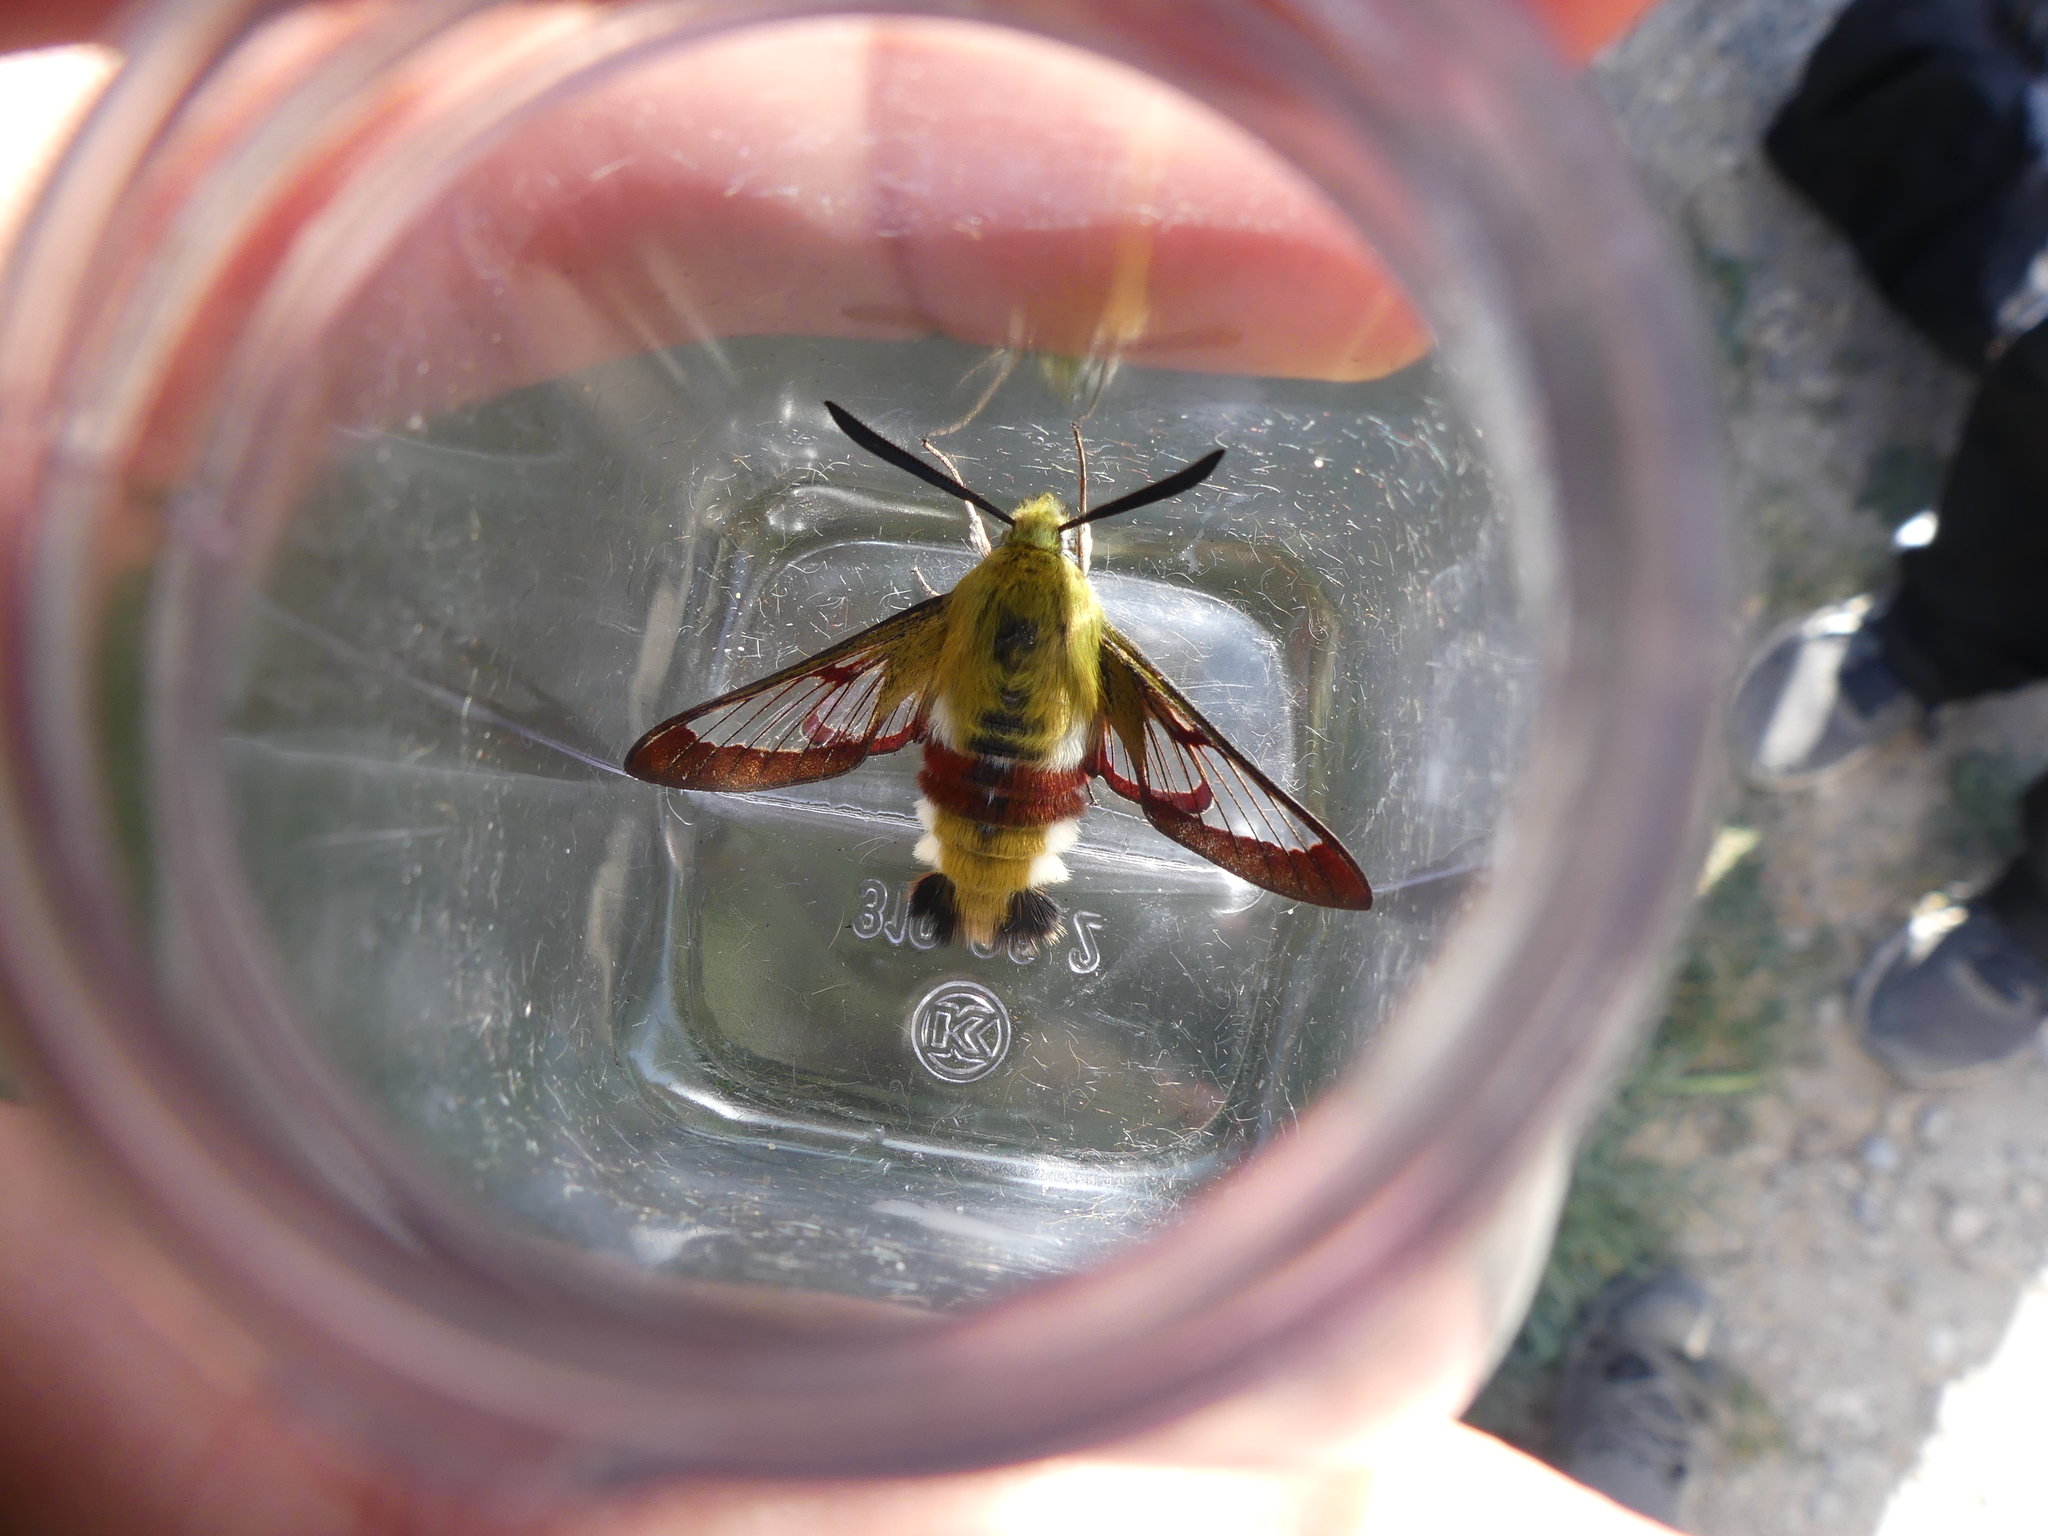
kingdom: Animalia
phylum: Arthropoda
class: Insecta
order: Lepidoptera
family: Sphingidae
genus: Hemaris
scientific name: Hemaris fuciformis
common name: Broad-bordered bee hawk-moth
